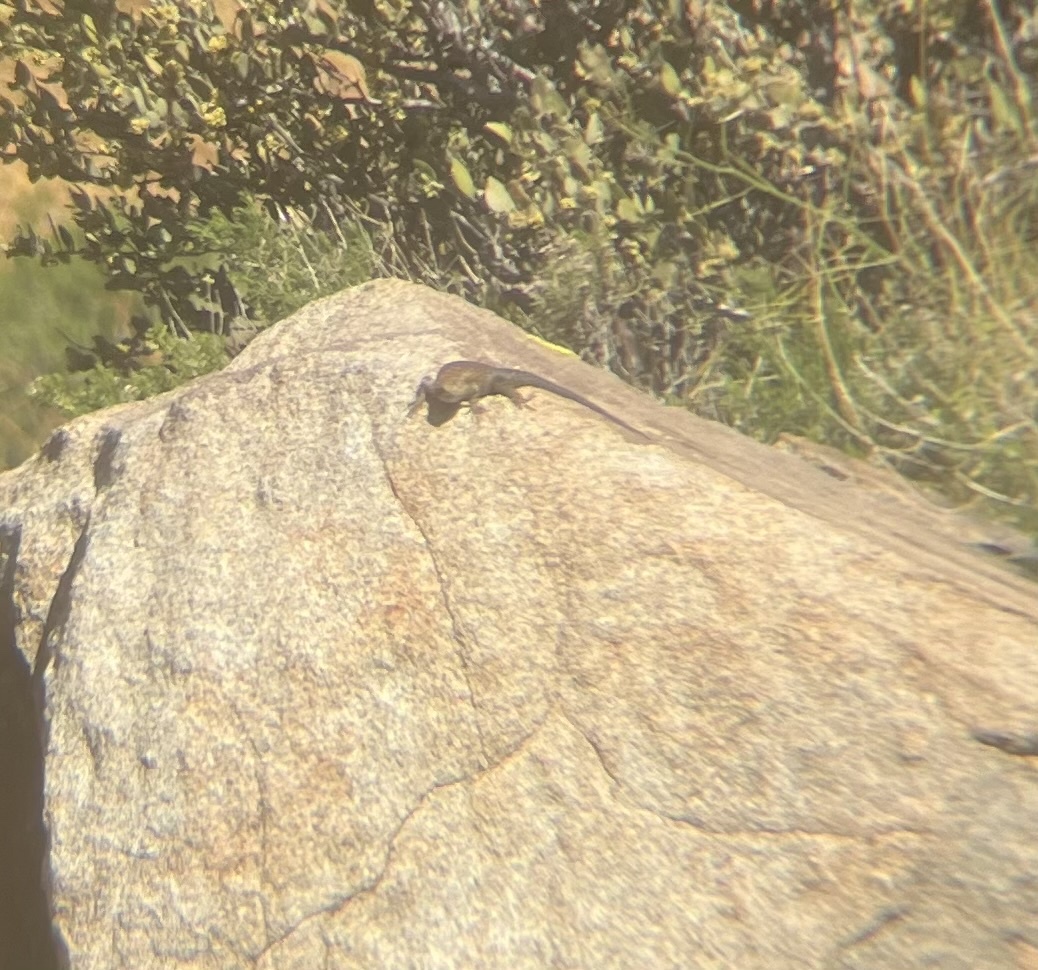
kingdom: Animalia
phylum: Chordata
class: Squamata
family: Phrynosomatidae
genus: Sceloporus
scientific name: Sceloporus orcutti
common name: Granite spiny lizard
